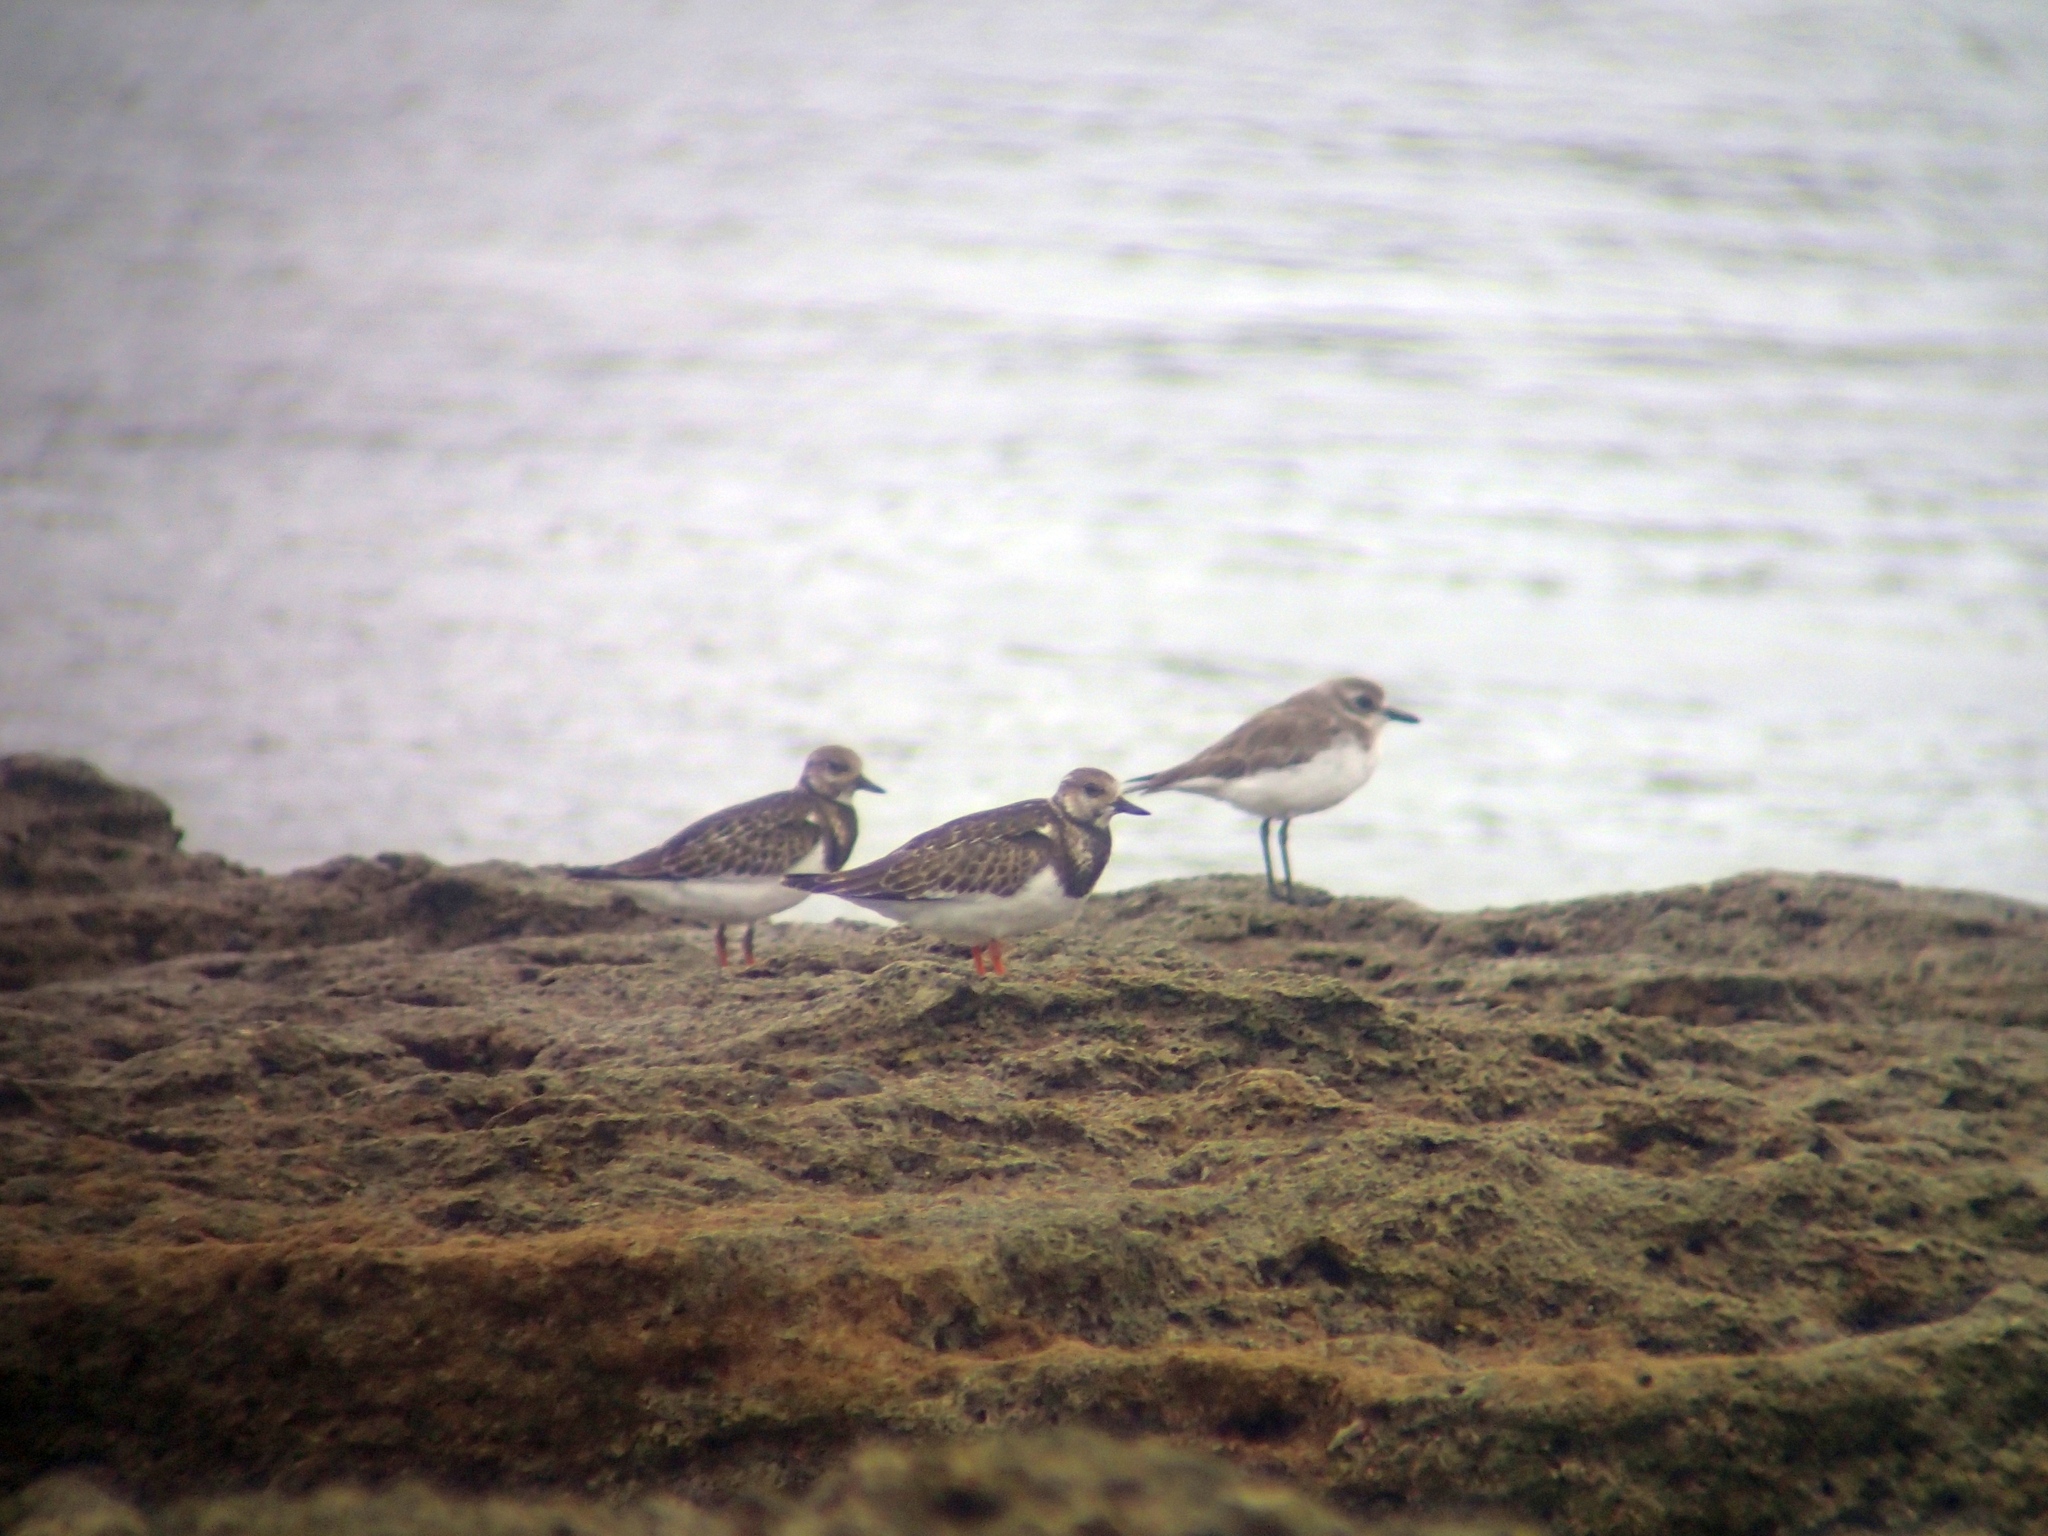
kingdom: Animalia
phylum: Chordata
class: Aves
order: Charadriiformes
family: Scolopacidae
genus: Arenaria
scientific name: Arenaria interpres
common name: Ruddy turnstone
